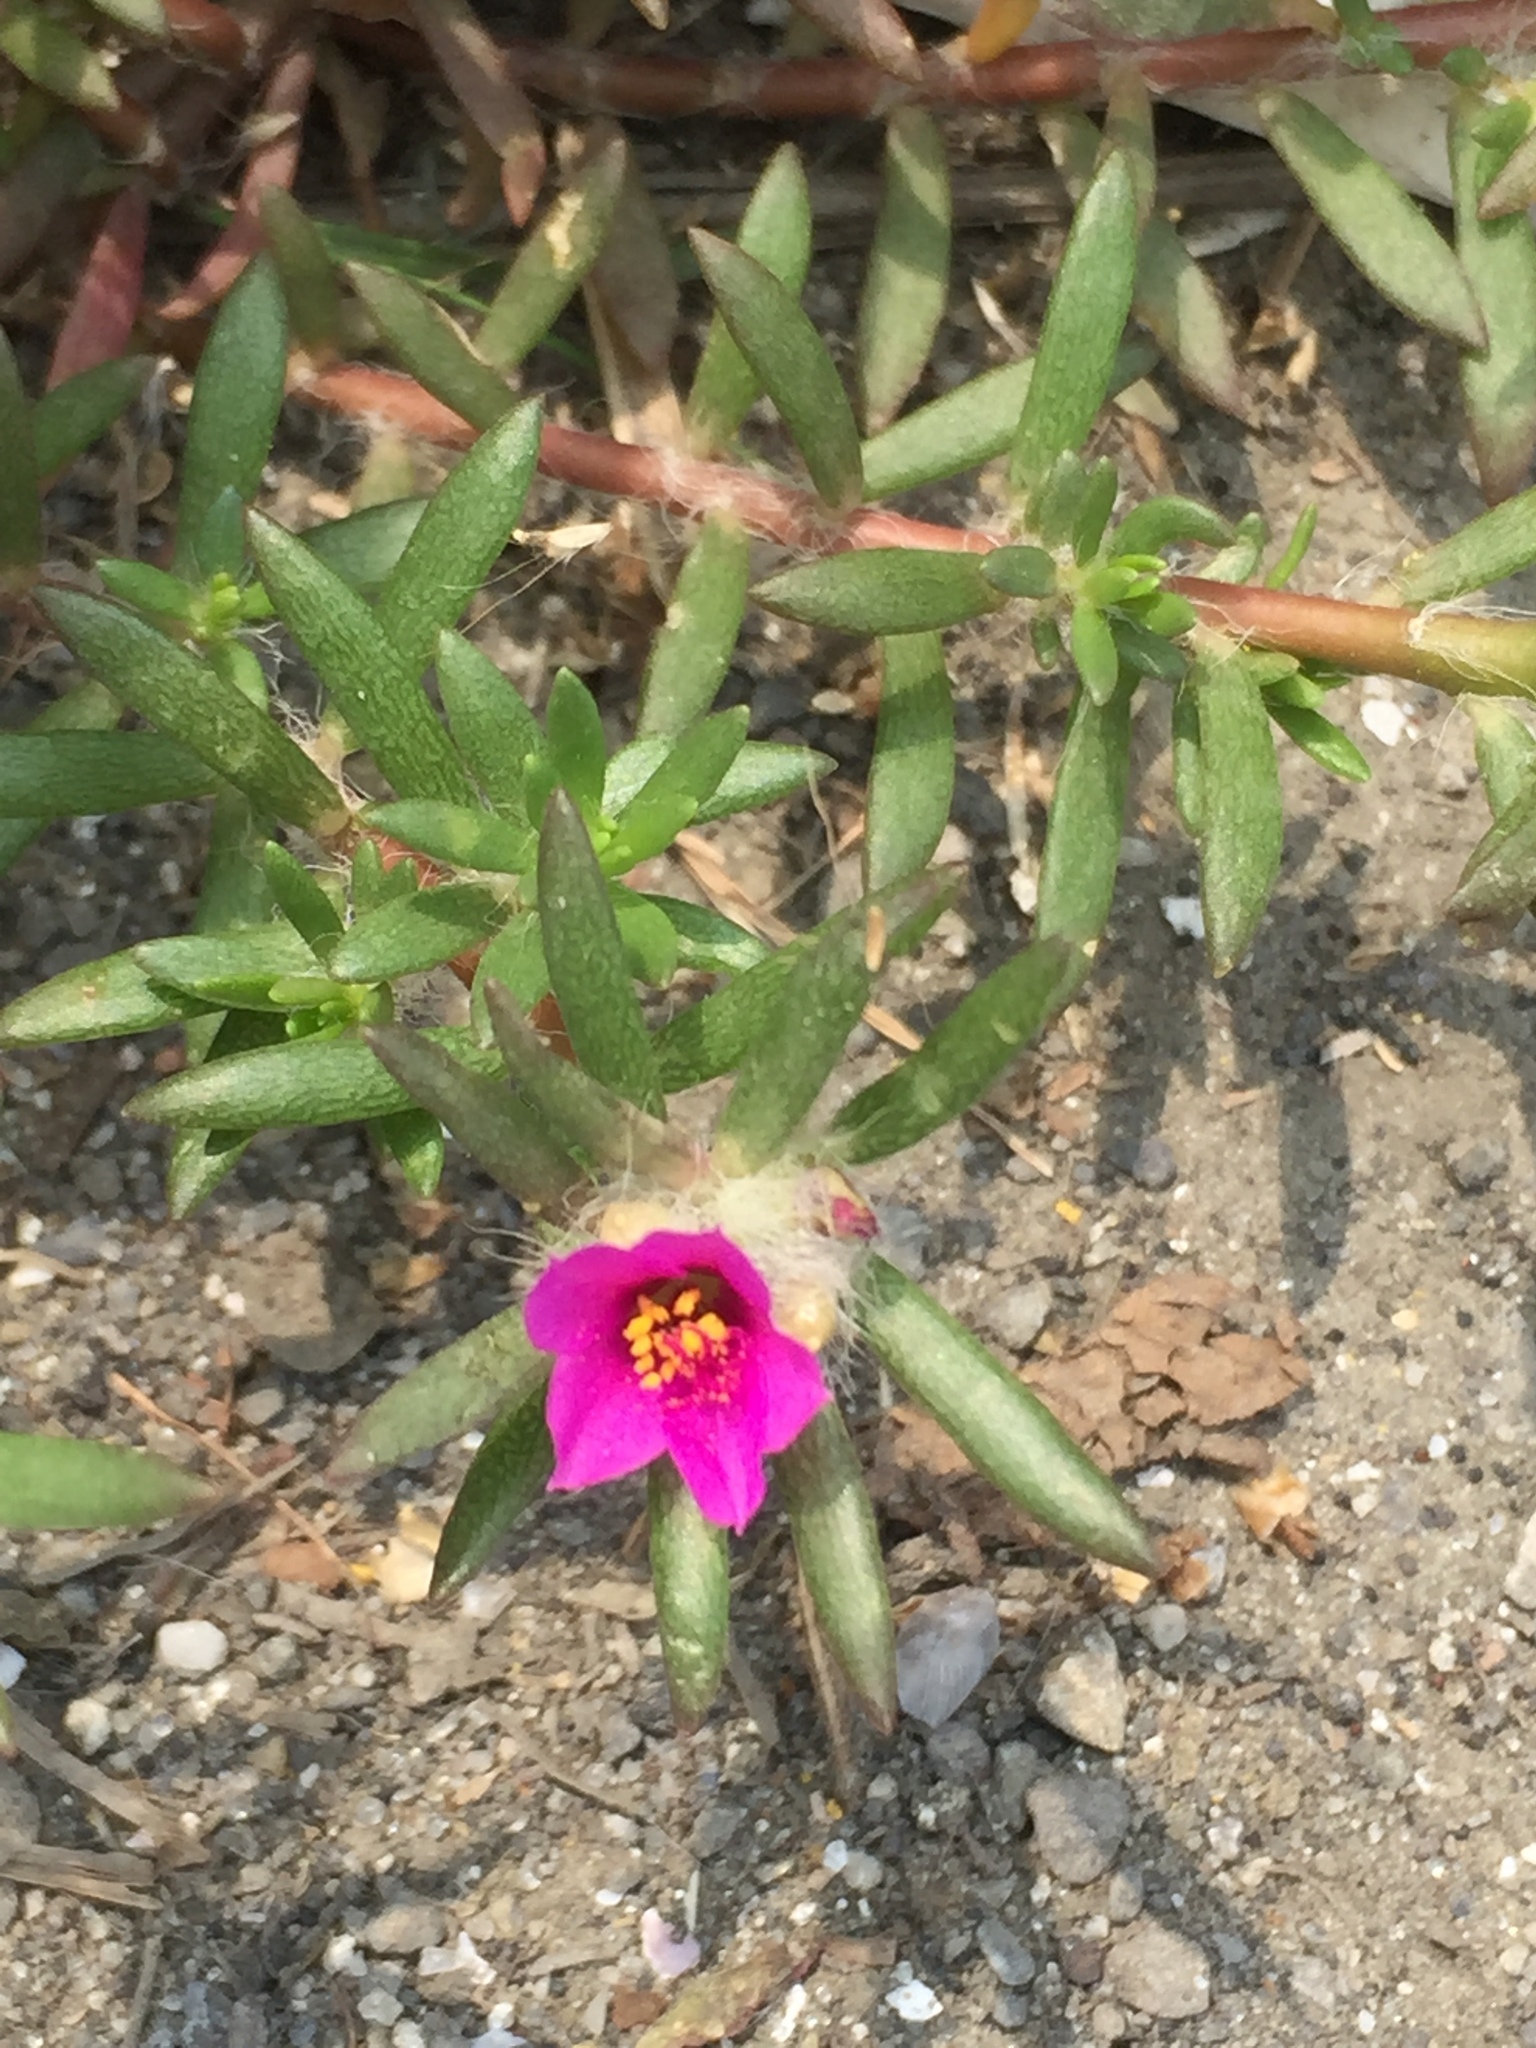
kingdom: Plantae
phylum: Tracheophyta
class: Magnoliopsida
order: Caryophyllales
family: Portulacaceae
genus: Portulaca
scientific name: Portulaca pilosa
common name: Kiss me quick
